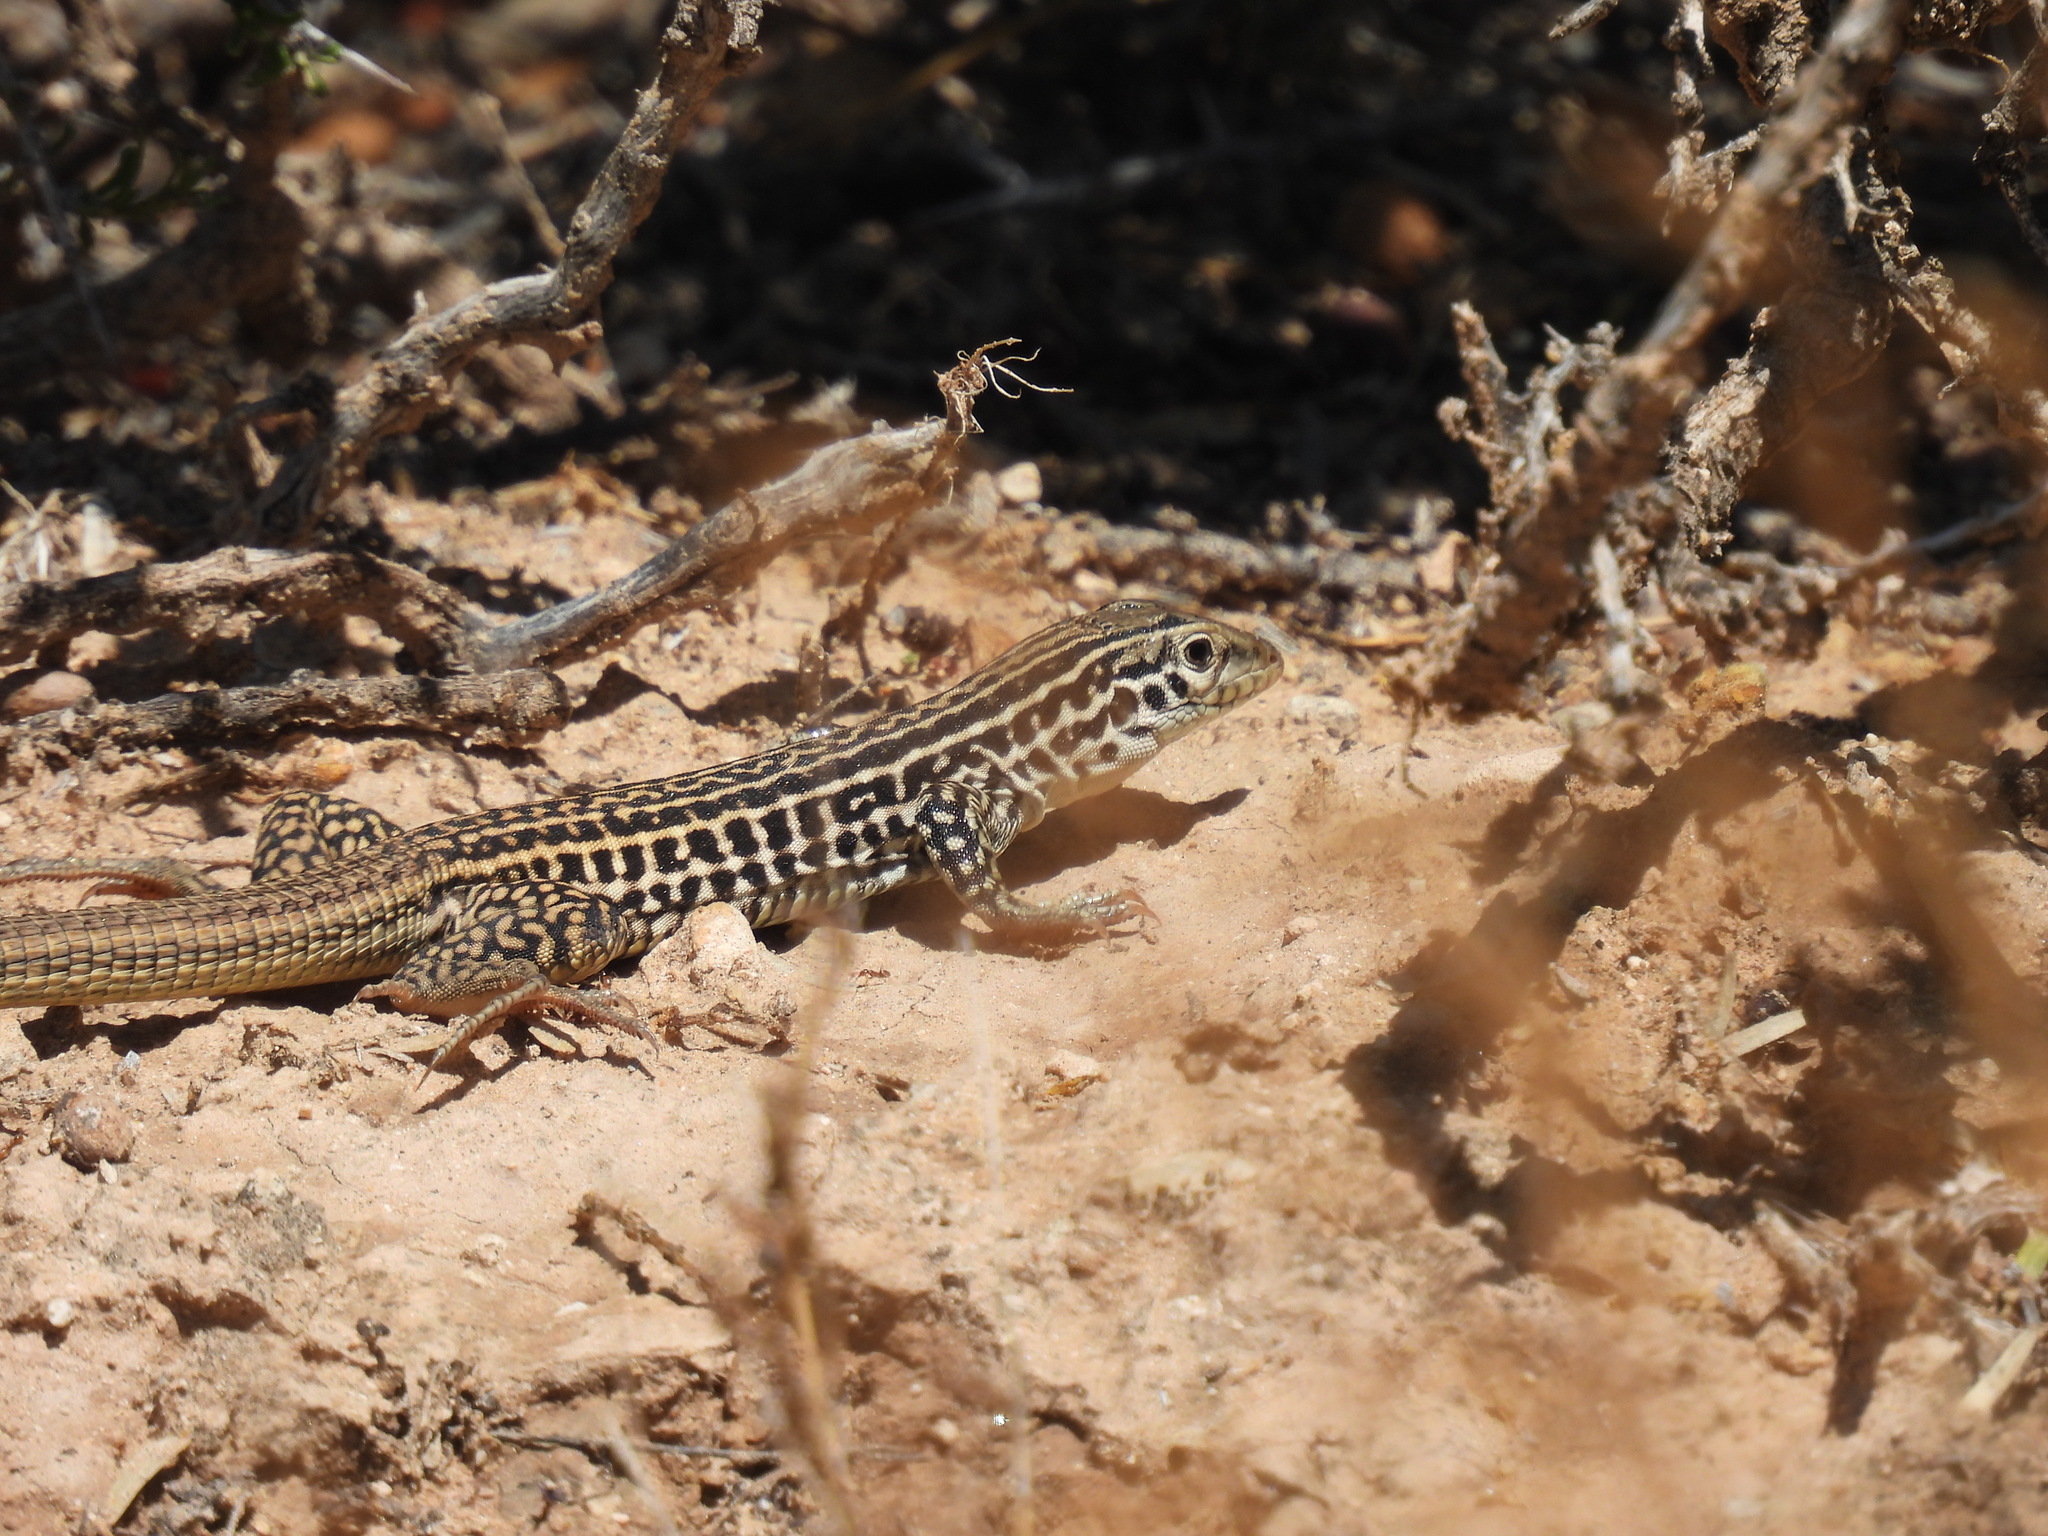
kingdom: Animalia
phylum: Chordata
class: Squamata
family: Teiidae
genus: Aspidoscelis
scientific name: Aspidoscelis tesselatus
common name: Common checkered whiptail [tesselata]
